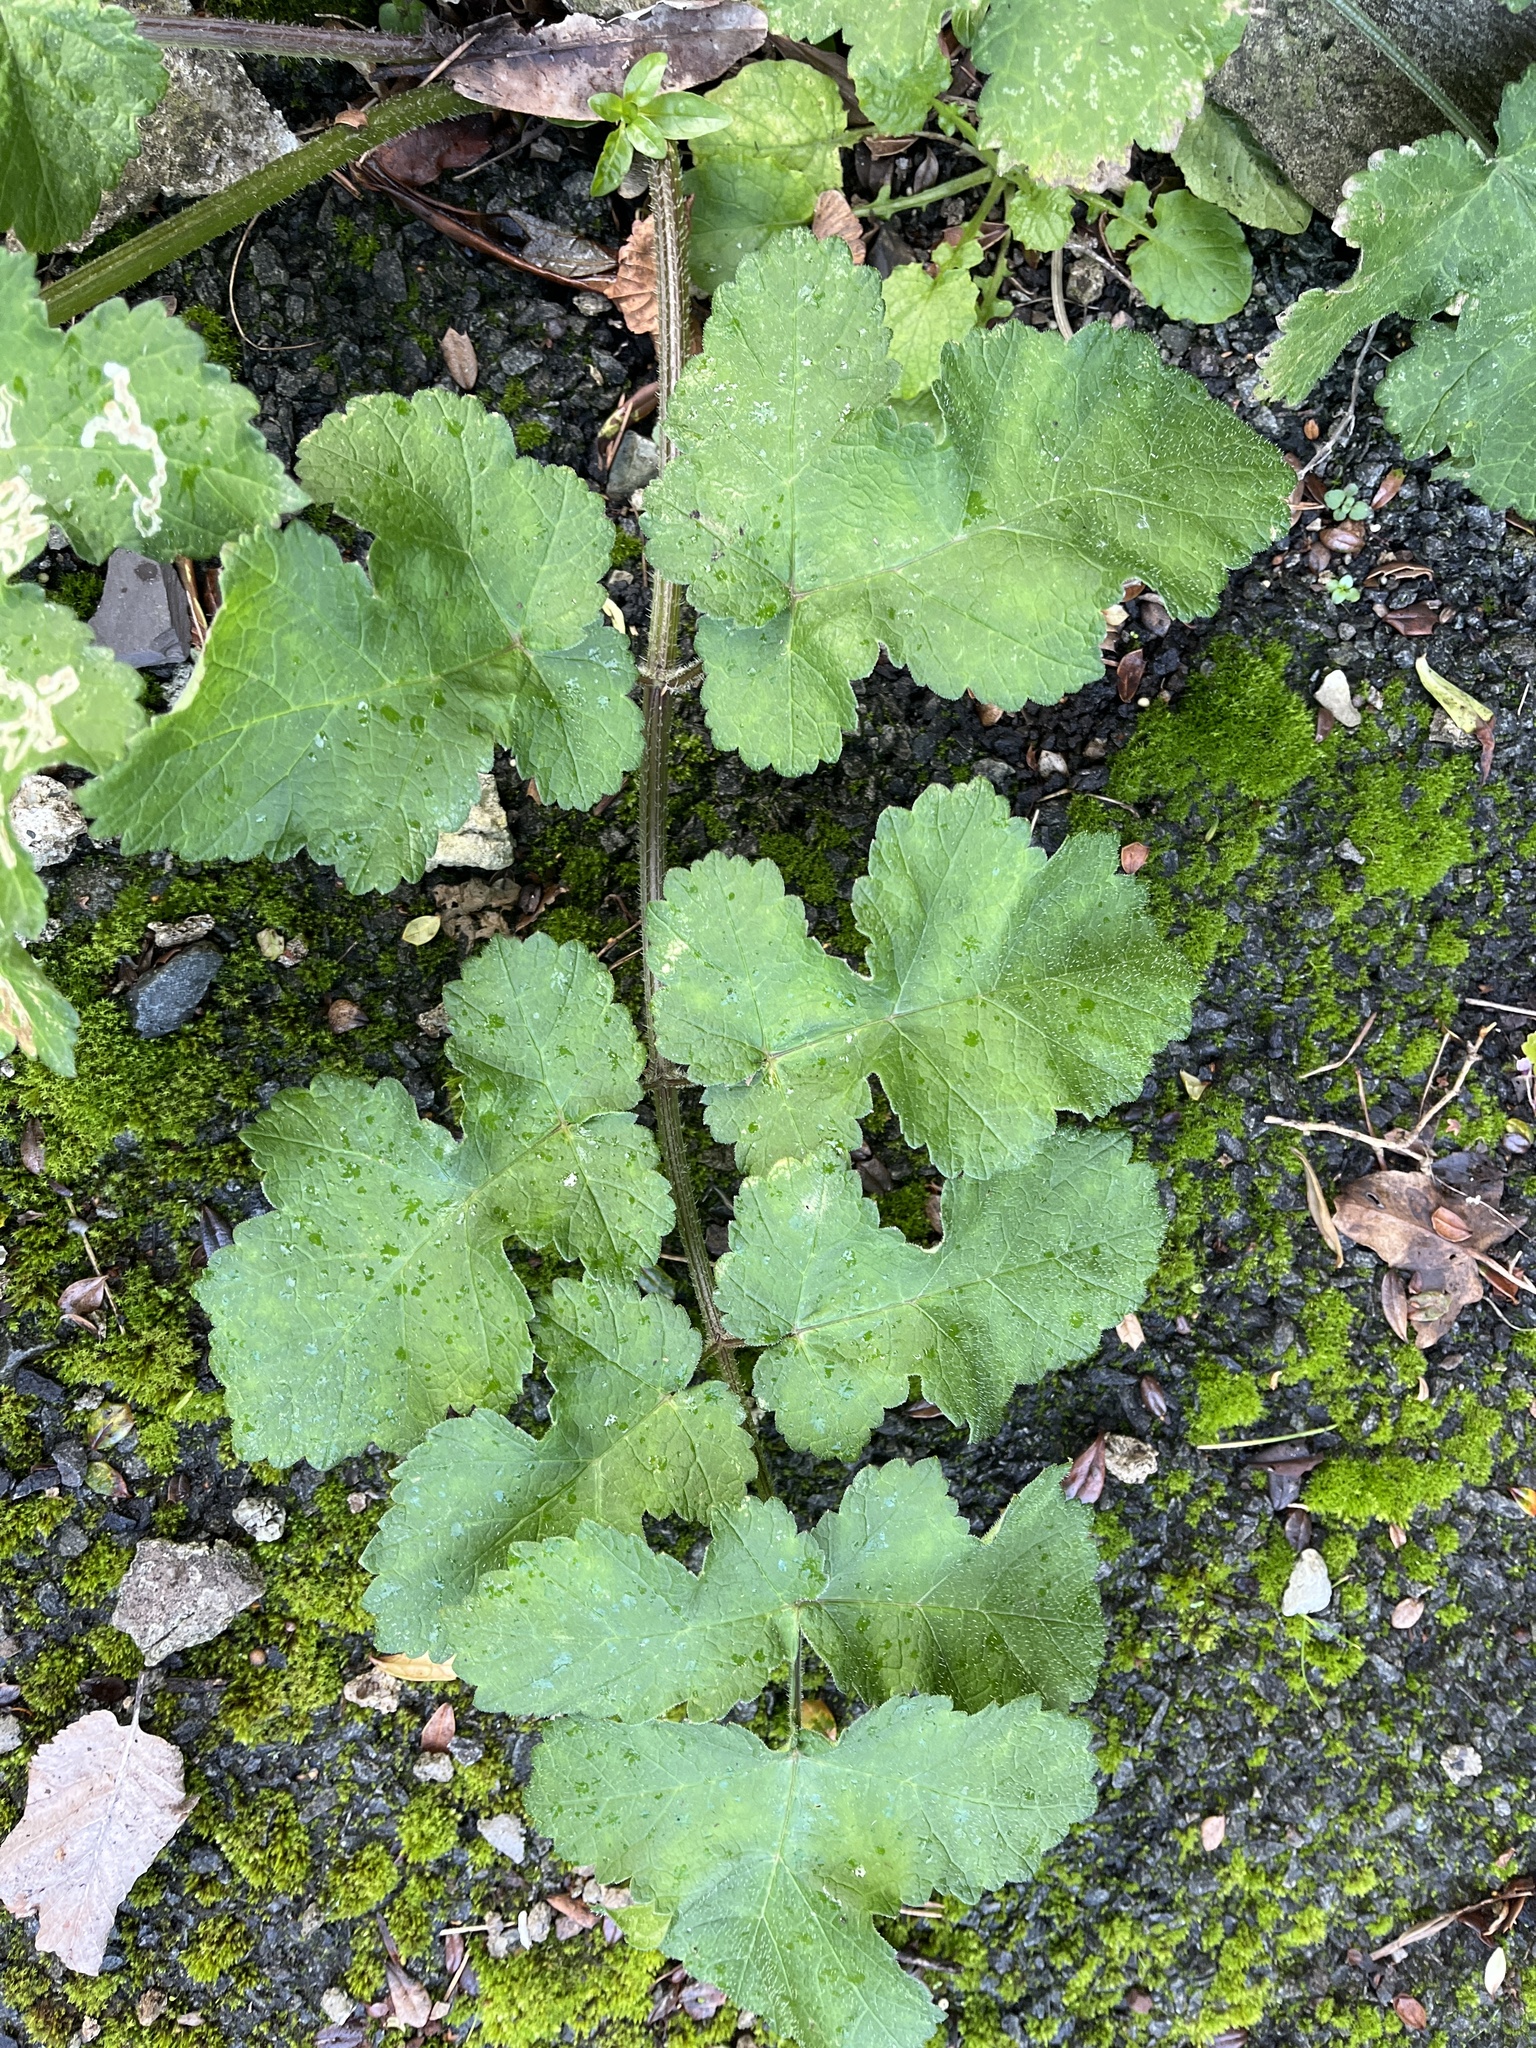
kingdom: Plantae
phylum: Tracheophyta
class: Magnoliopsida
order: Apiales
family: Apiaceae
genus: Heracleum
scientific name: Heracleum sphondylium
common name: Hogweed
